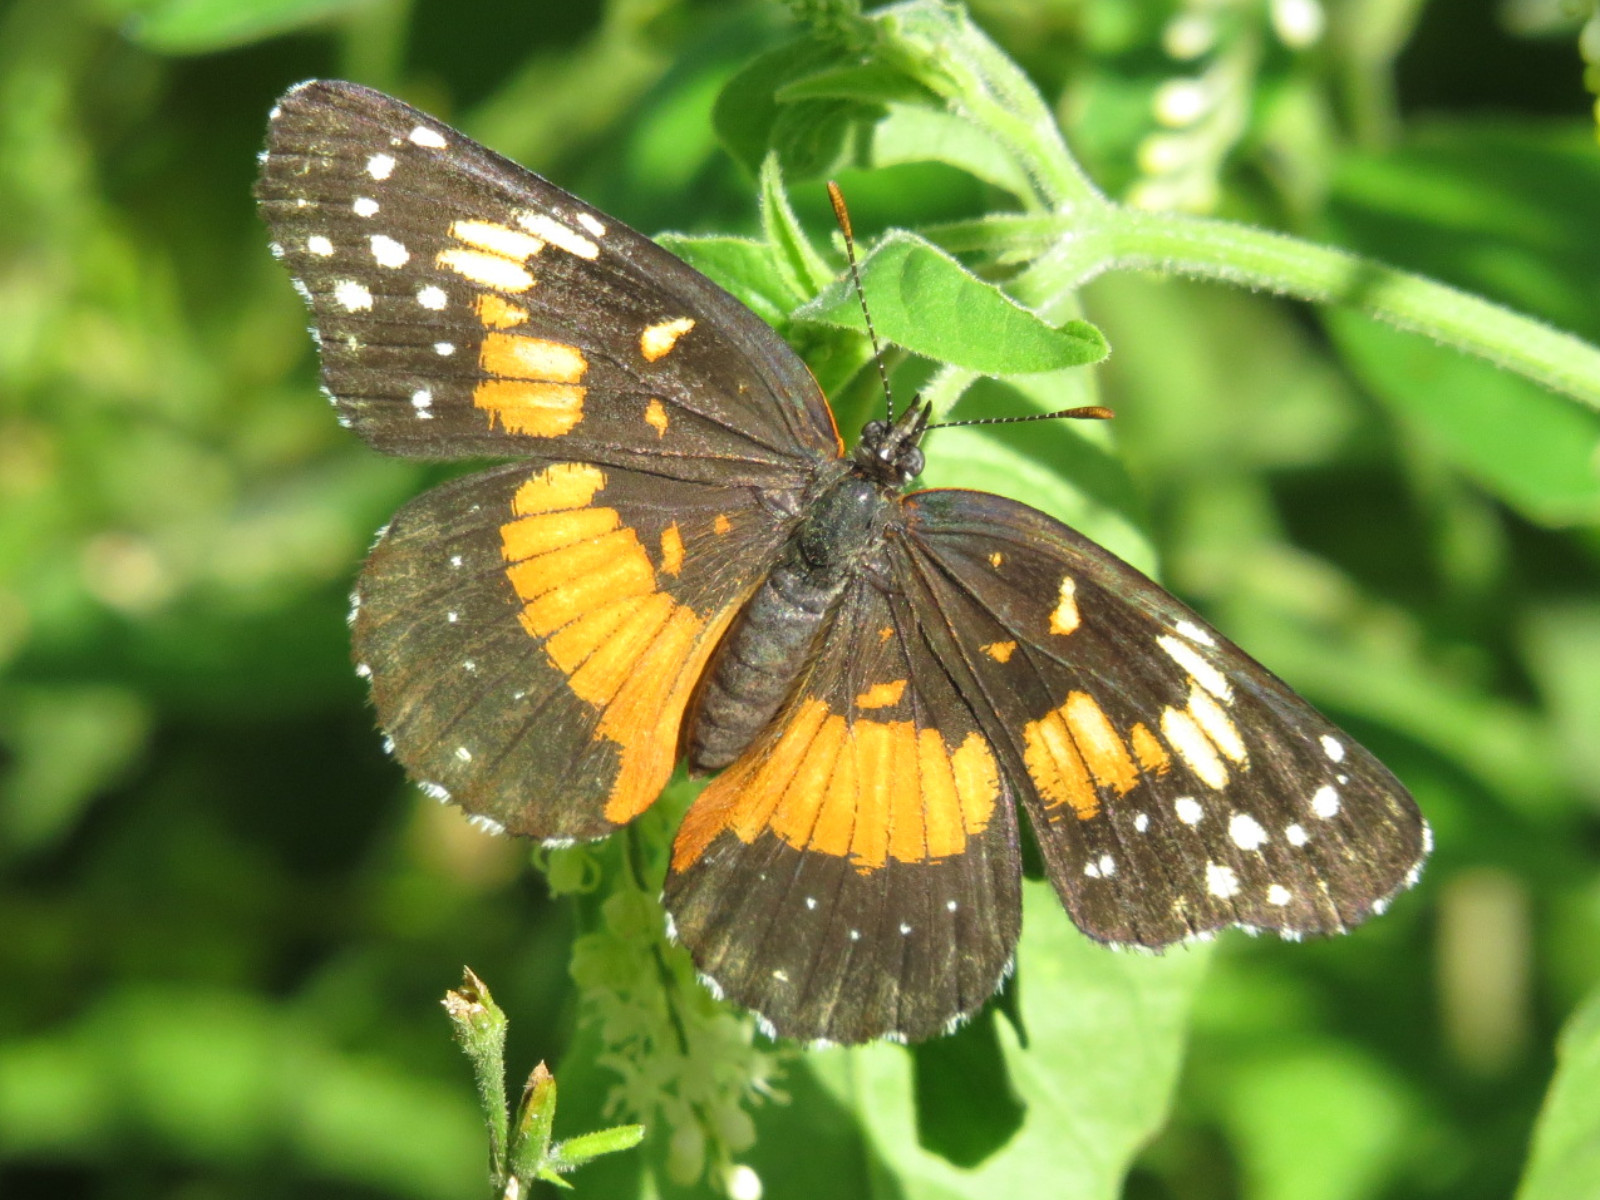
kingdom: Animalia
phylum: Arthropoda
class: Insecta
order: Lepidoptera
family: Nymphalidae
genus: Chlosyne
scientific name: Chlosyne lacinia
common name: Bordered patch
